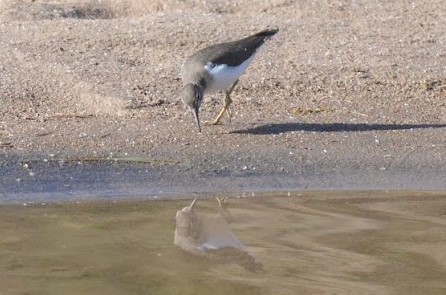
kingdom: Animalia
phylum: Chordata
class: Aves
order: Charadriiformes
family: Scolopacidae
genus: Actitis
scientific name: Actitis macularius
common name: Spotted sandpiper
